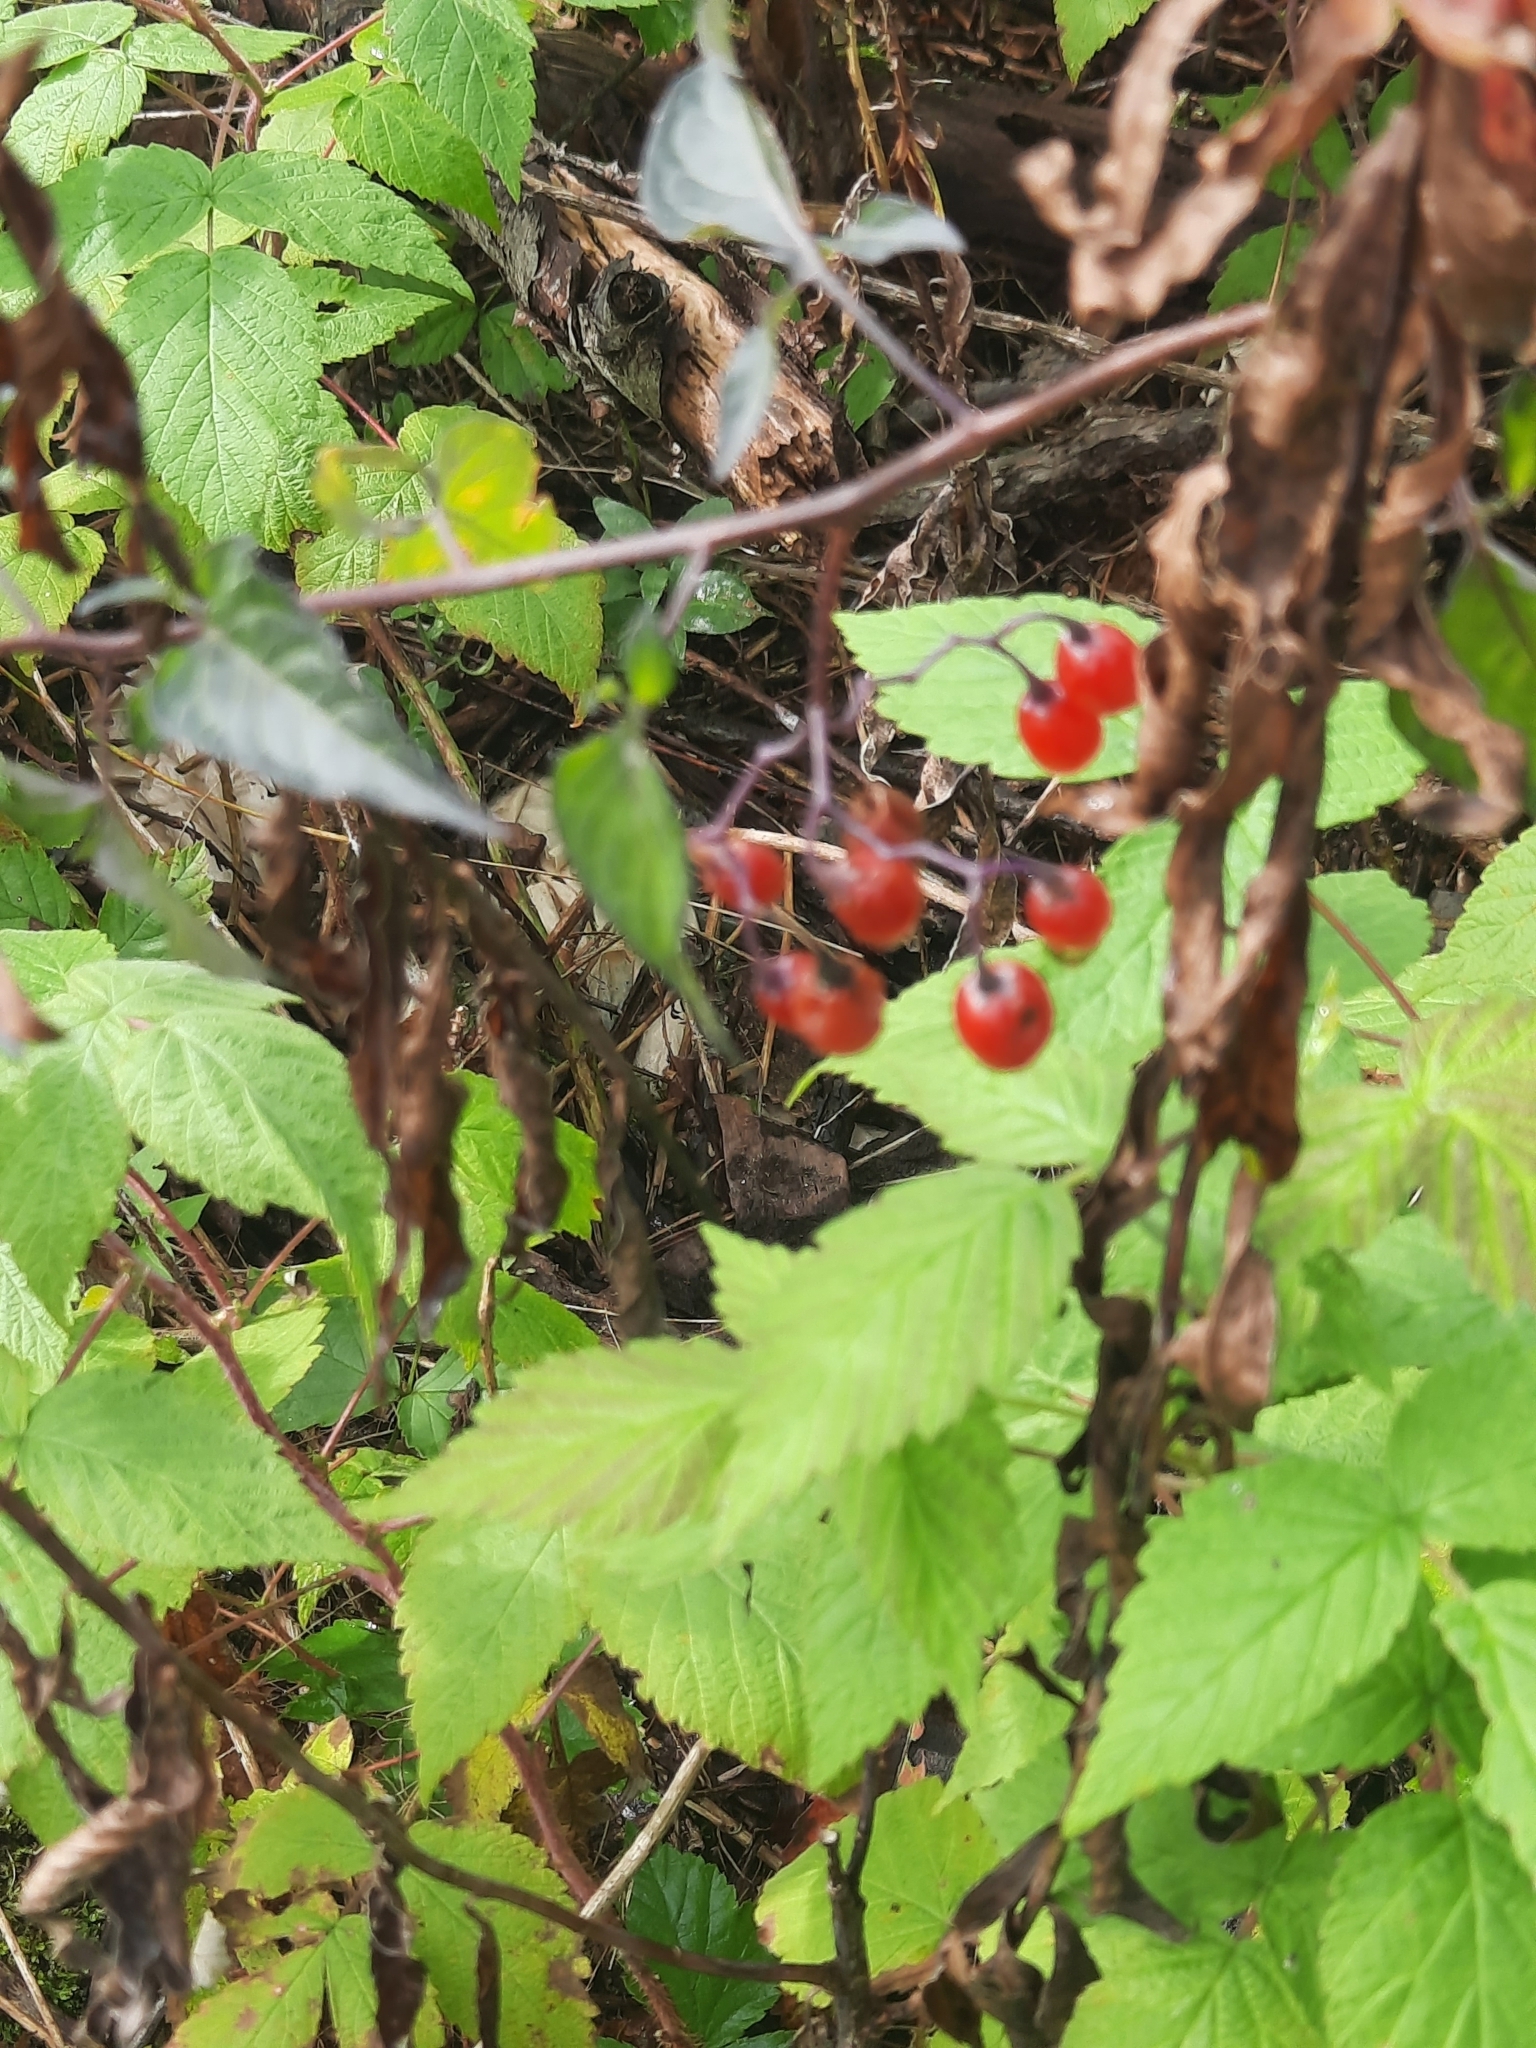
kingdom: Plantae
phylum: Tracheophyta
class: Magnoliopsida
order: Solanales
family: Solanaceae
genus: Solanum
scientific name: Solanum dulcamara
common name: Climbing nightshade
